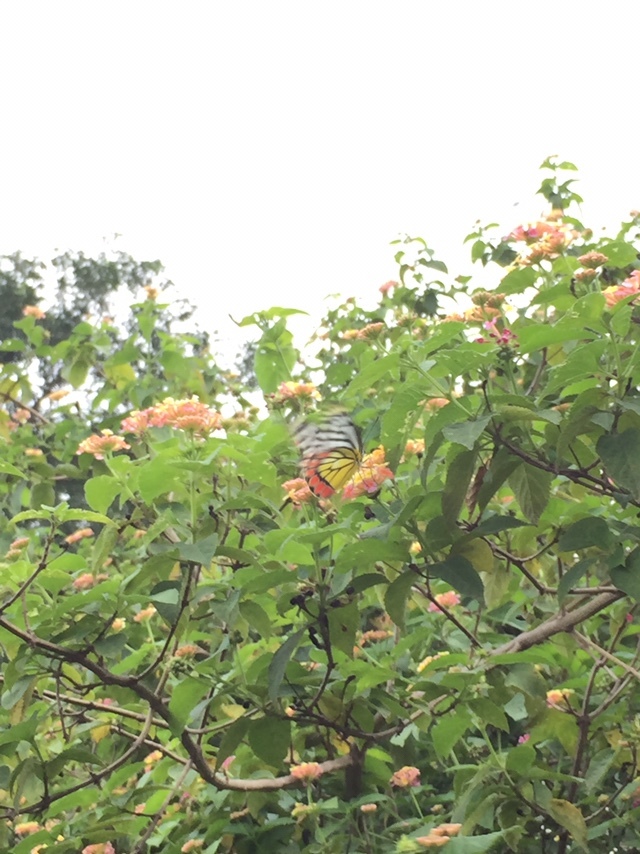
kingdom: Animalia
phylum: Arthropoda
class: Insecta
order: Lepidoptera
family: Pieridae
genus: Delias
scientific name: Delias eucharis
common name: Common jezebel
